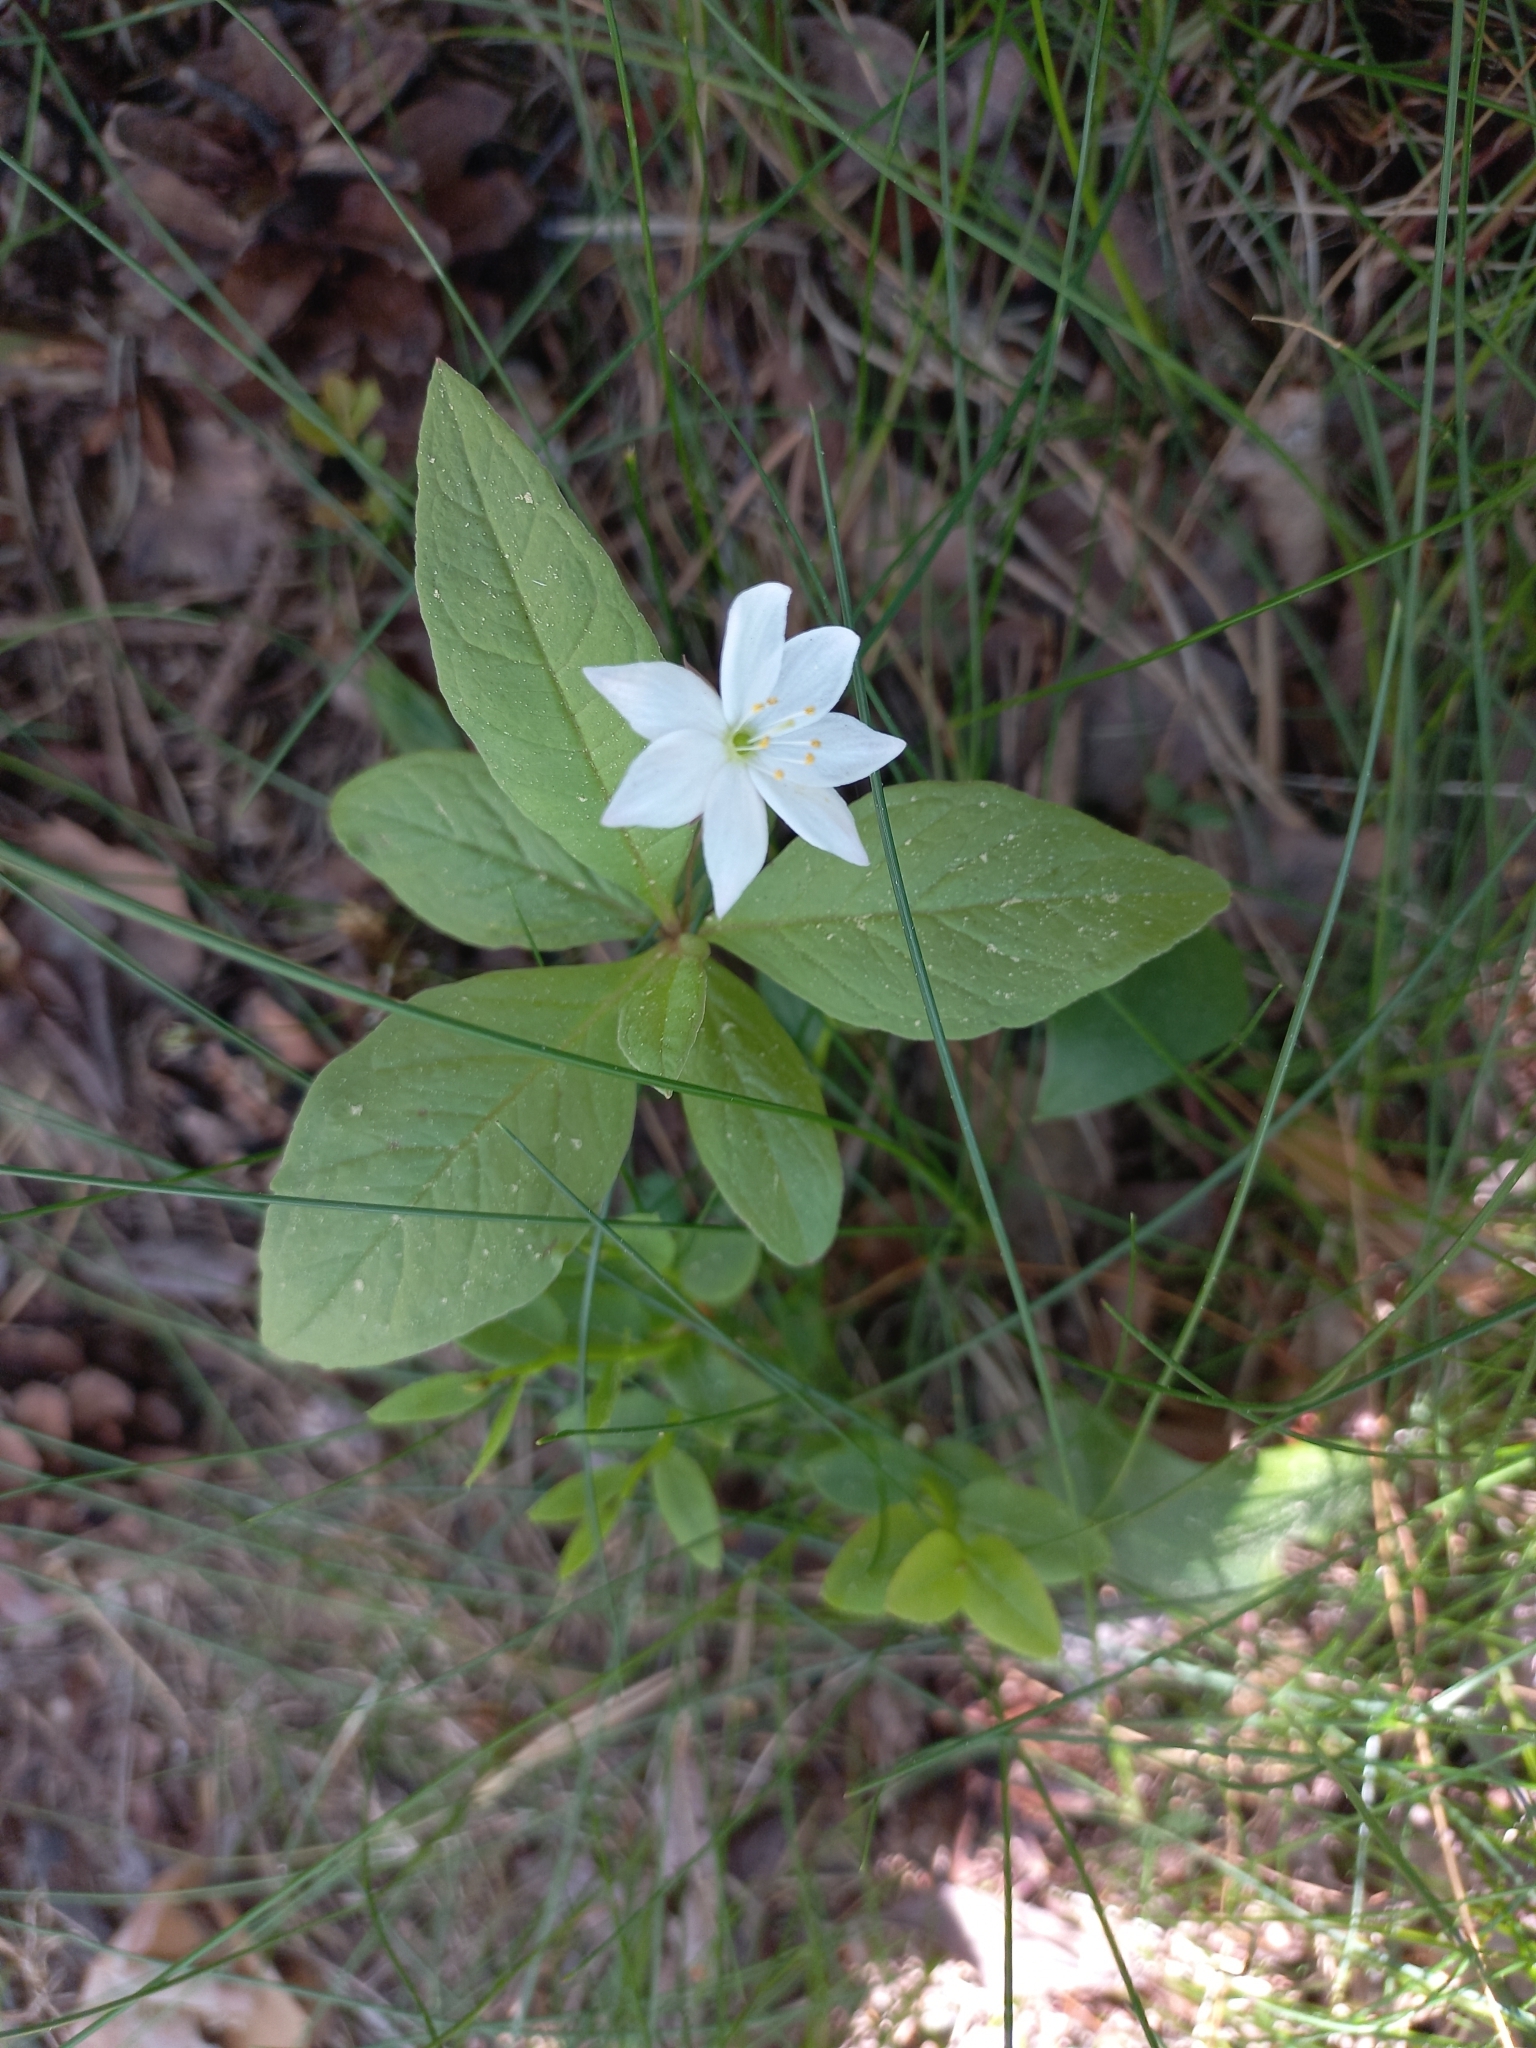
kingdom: Plantae
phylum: Tracheophyta
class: Magnoliopsida
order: Ericales
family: Primulaceae
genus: Lysimachia
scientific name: Lysimachia europaea
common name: Arctic starflower
